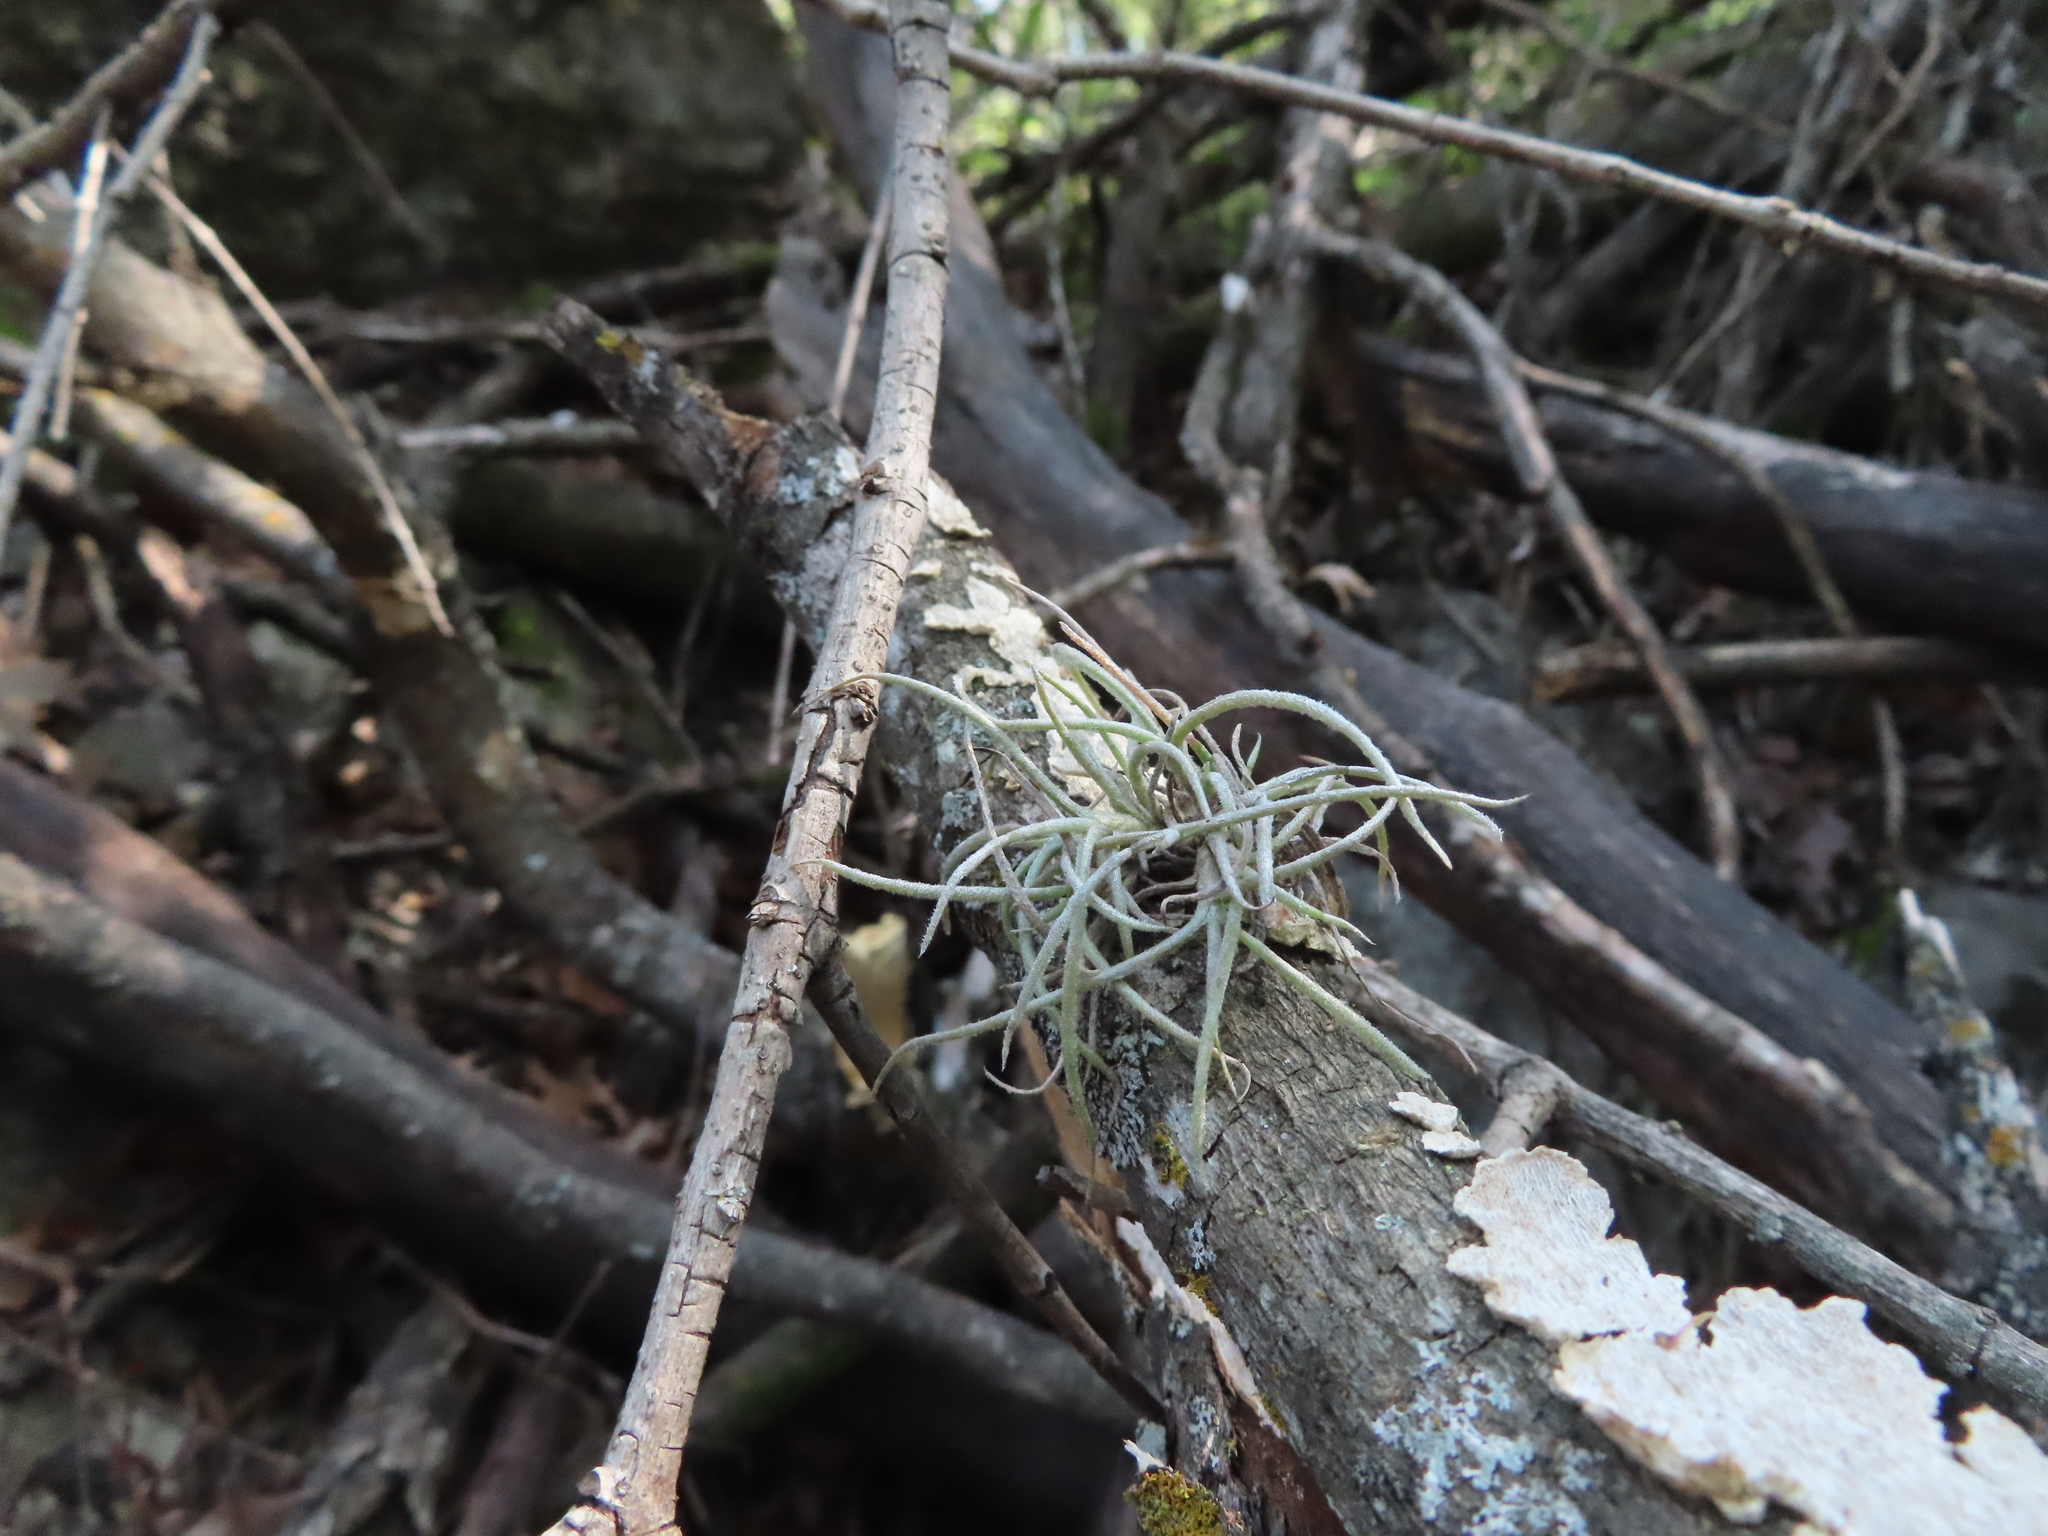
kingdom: Plantae
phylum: Tracheophyta
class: Liliopsida
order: Poales
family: Bromeliaceae
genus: Tillandsia
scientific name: Tillandsia recurvata
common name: Small ballmoss
